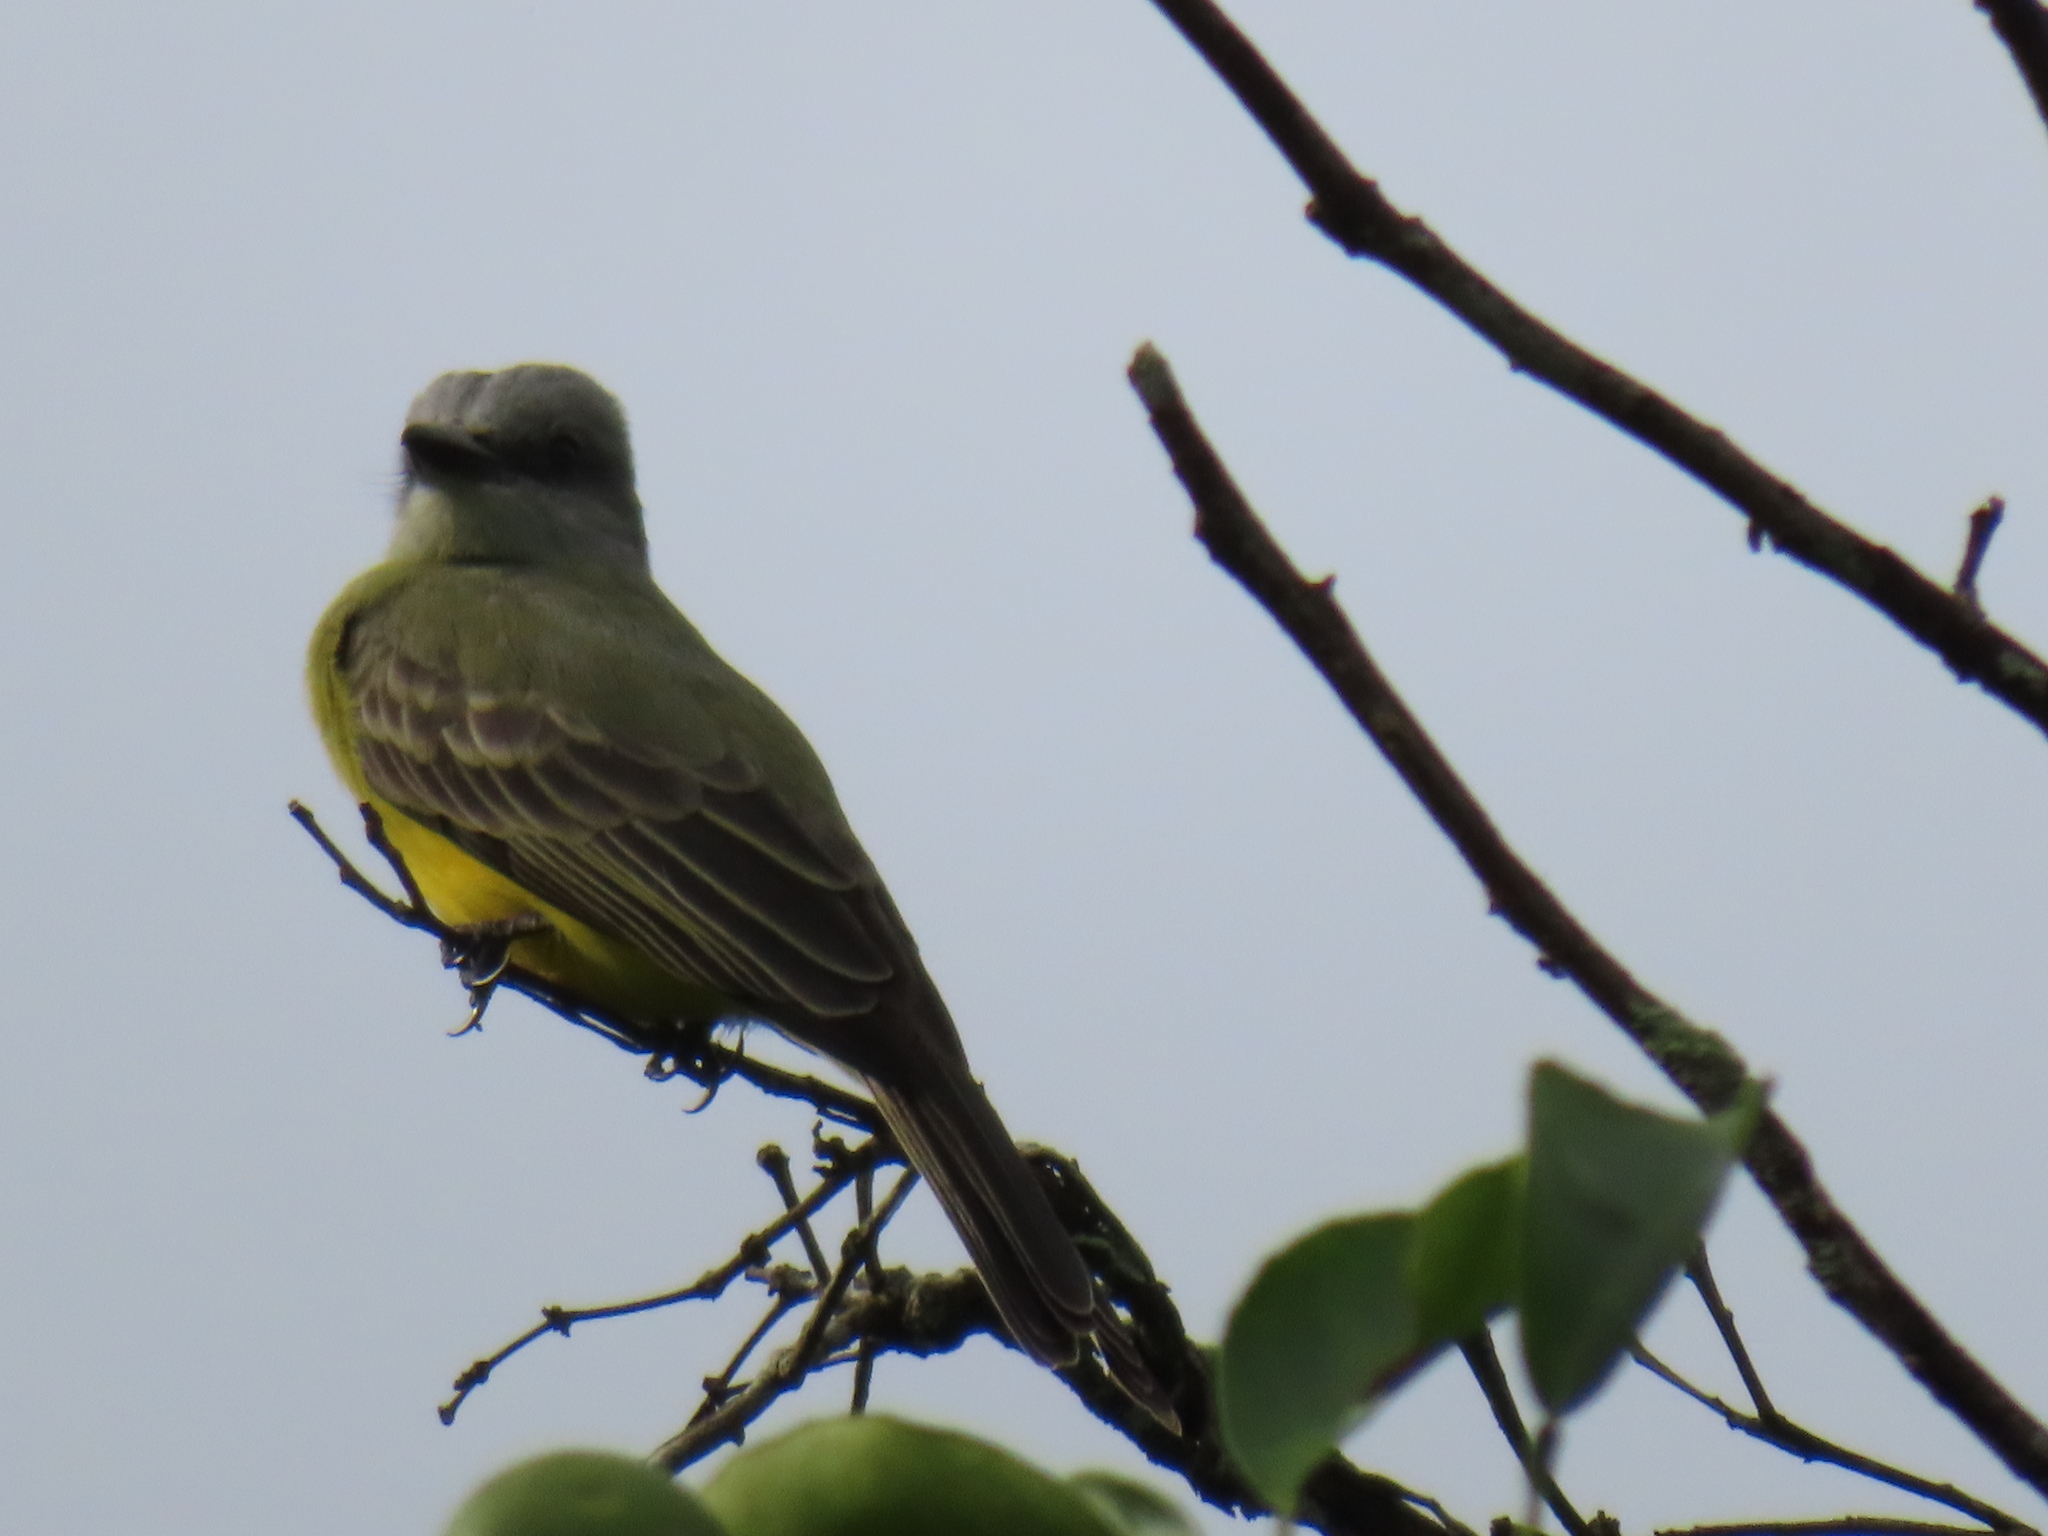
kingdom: Animalia
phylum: Chordata
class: Aves
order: Passeriformes
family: Tyrannidae
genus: Tyrannus
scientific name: Tyrannus melancholicus
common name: Tropical kingbird
